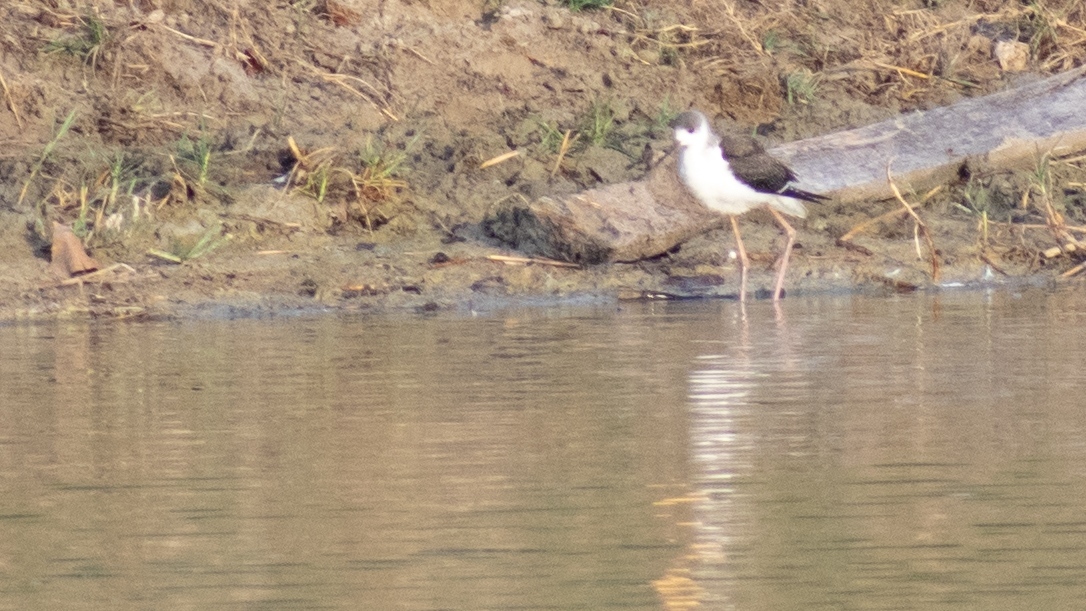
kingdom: Animalia
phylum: Chordata
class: Aves
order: Charadriiformes
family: Recurvirostridae
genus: Himantopus
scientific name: Himantopus himantopus
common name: Black-winged stilt
